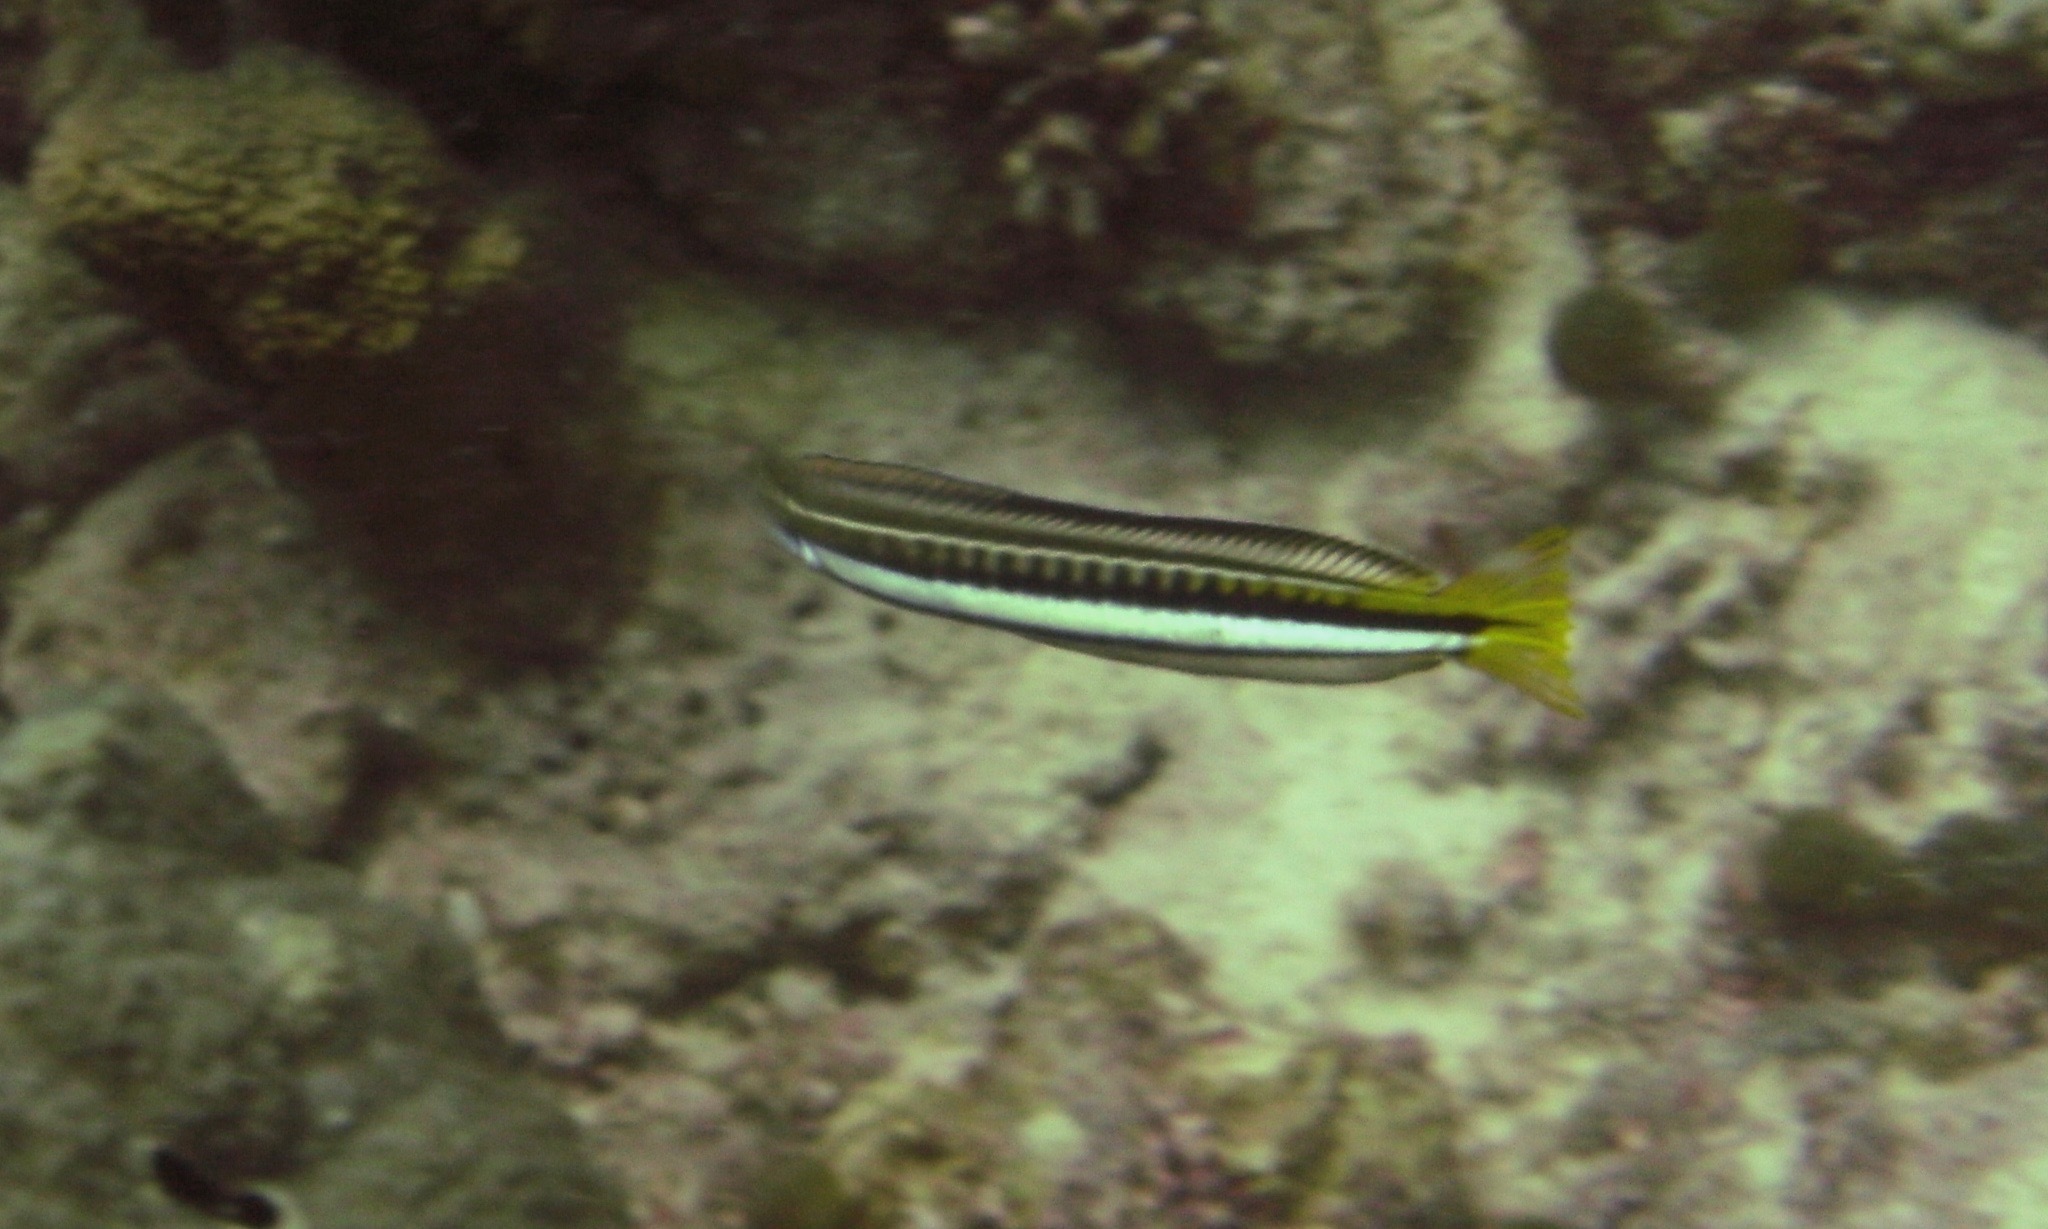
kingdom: Animalia
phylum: Chordata
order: Perciformes
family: Blenniidae
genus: Plagiotremus
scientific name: Plagiotremus tapeinosoma
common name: Hit and run blenny
